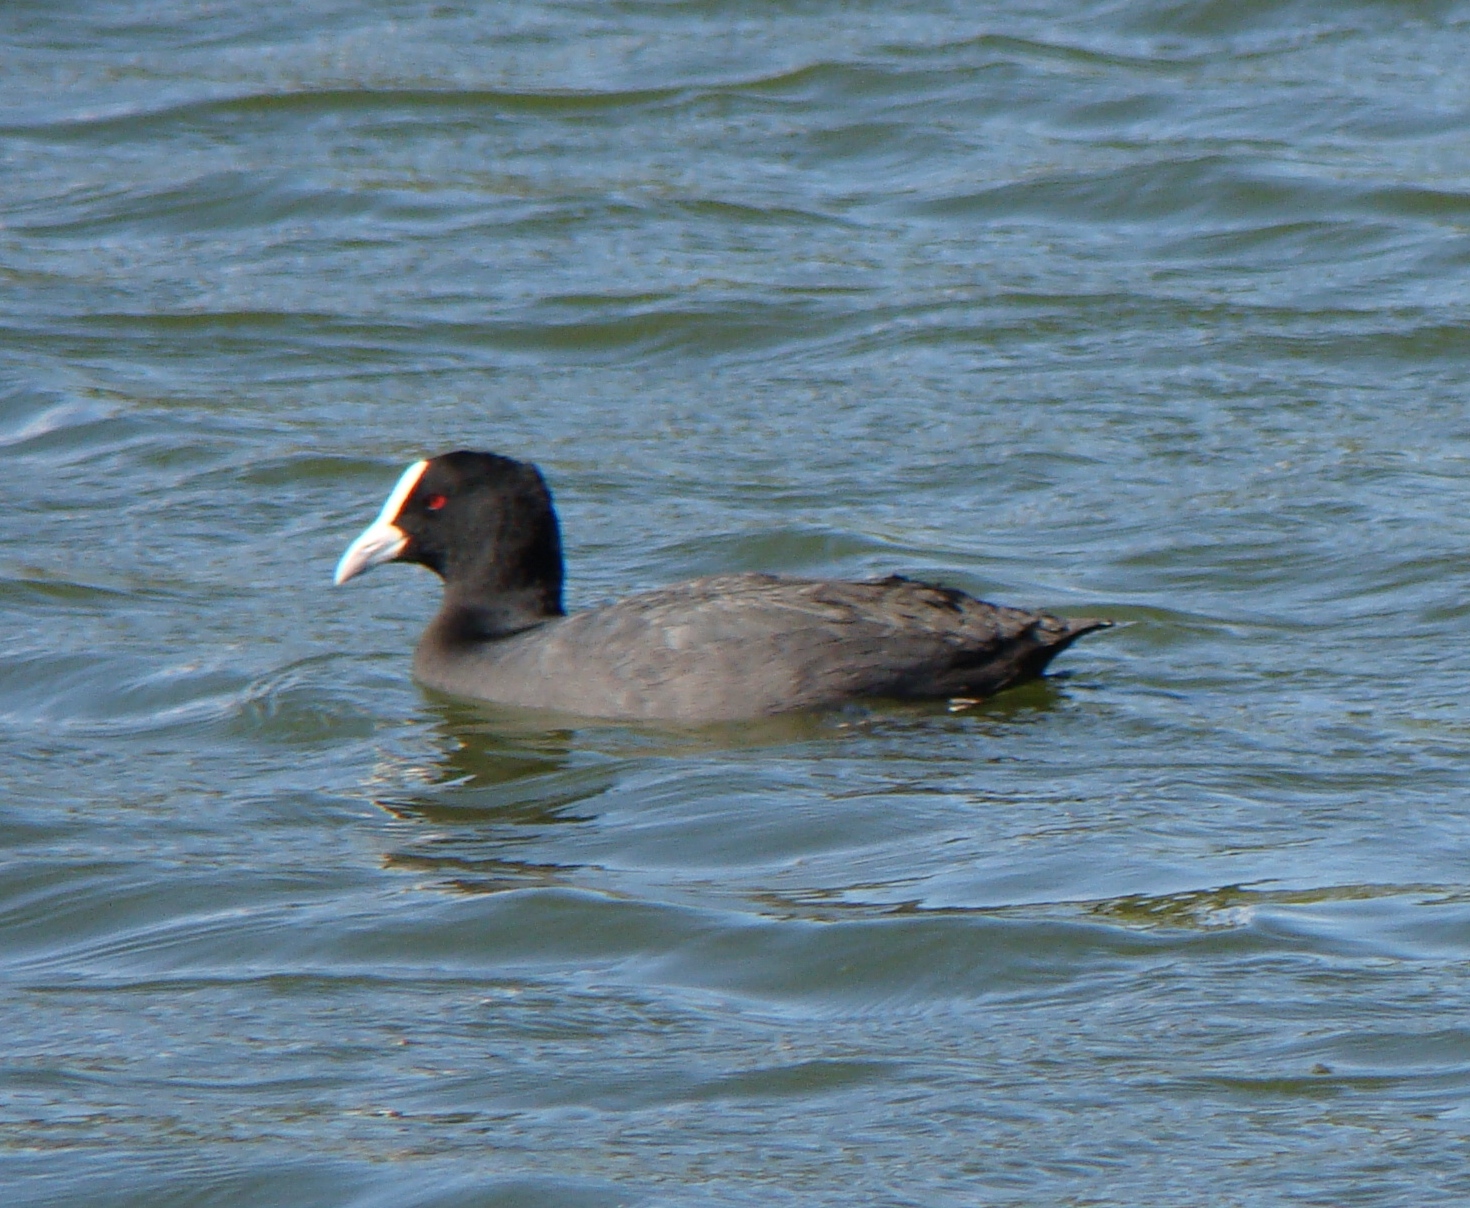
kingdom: Animalia
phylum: Chordata
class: Aves
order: Gruiformes
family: Rallidae
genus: Fulica
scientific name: Fulica atra
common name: Eurasian coot
